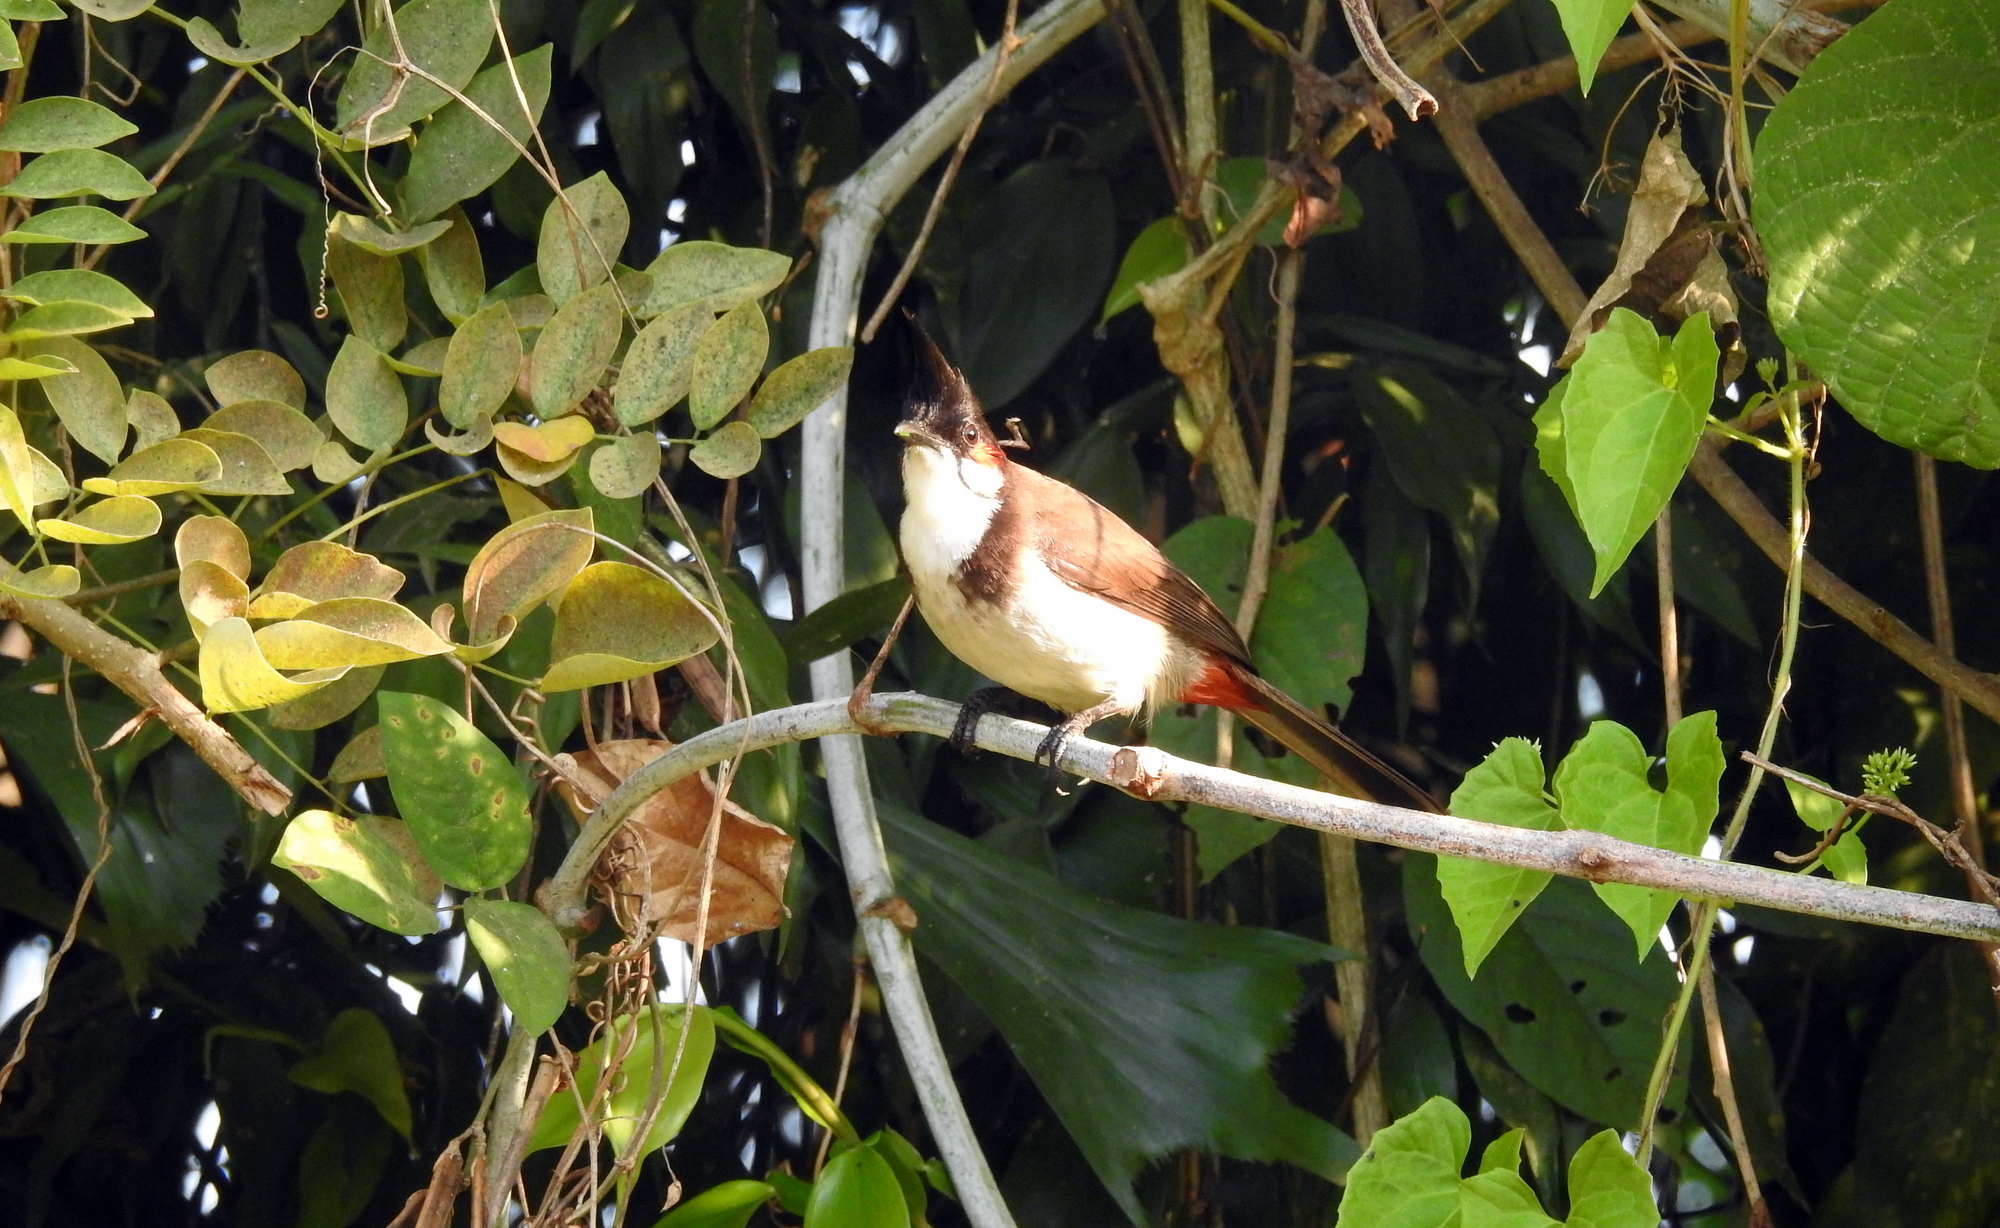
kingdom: Animalia
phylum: Chordata
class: Aves
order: Passeriformes
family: Pycnonotidae
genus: Pycnonotus
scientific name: Pycnonotus jocosus
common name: Red-whiskered bulbul
